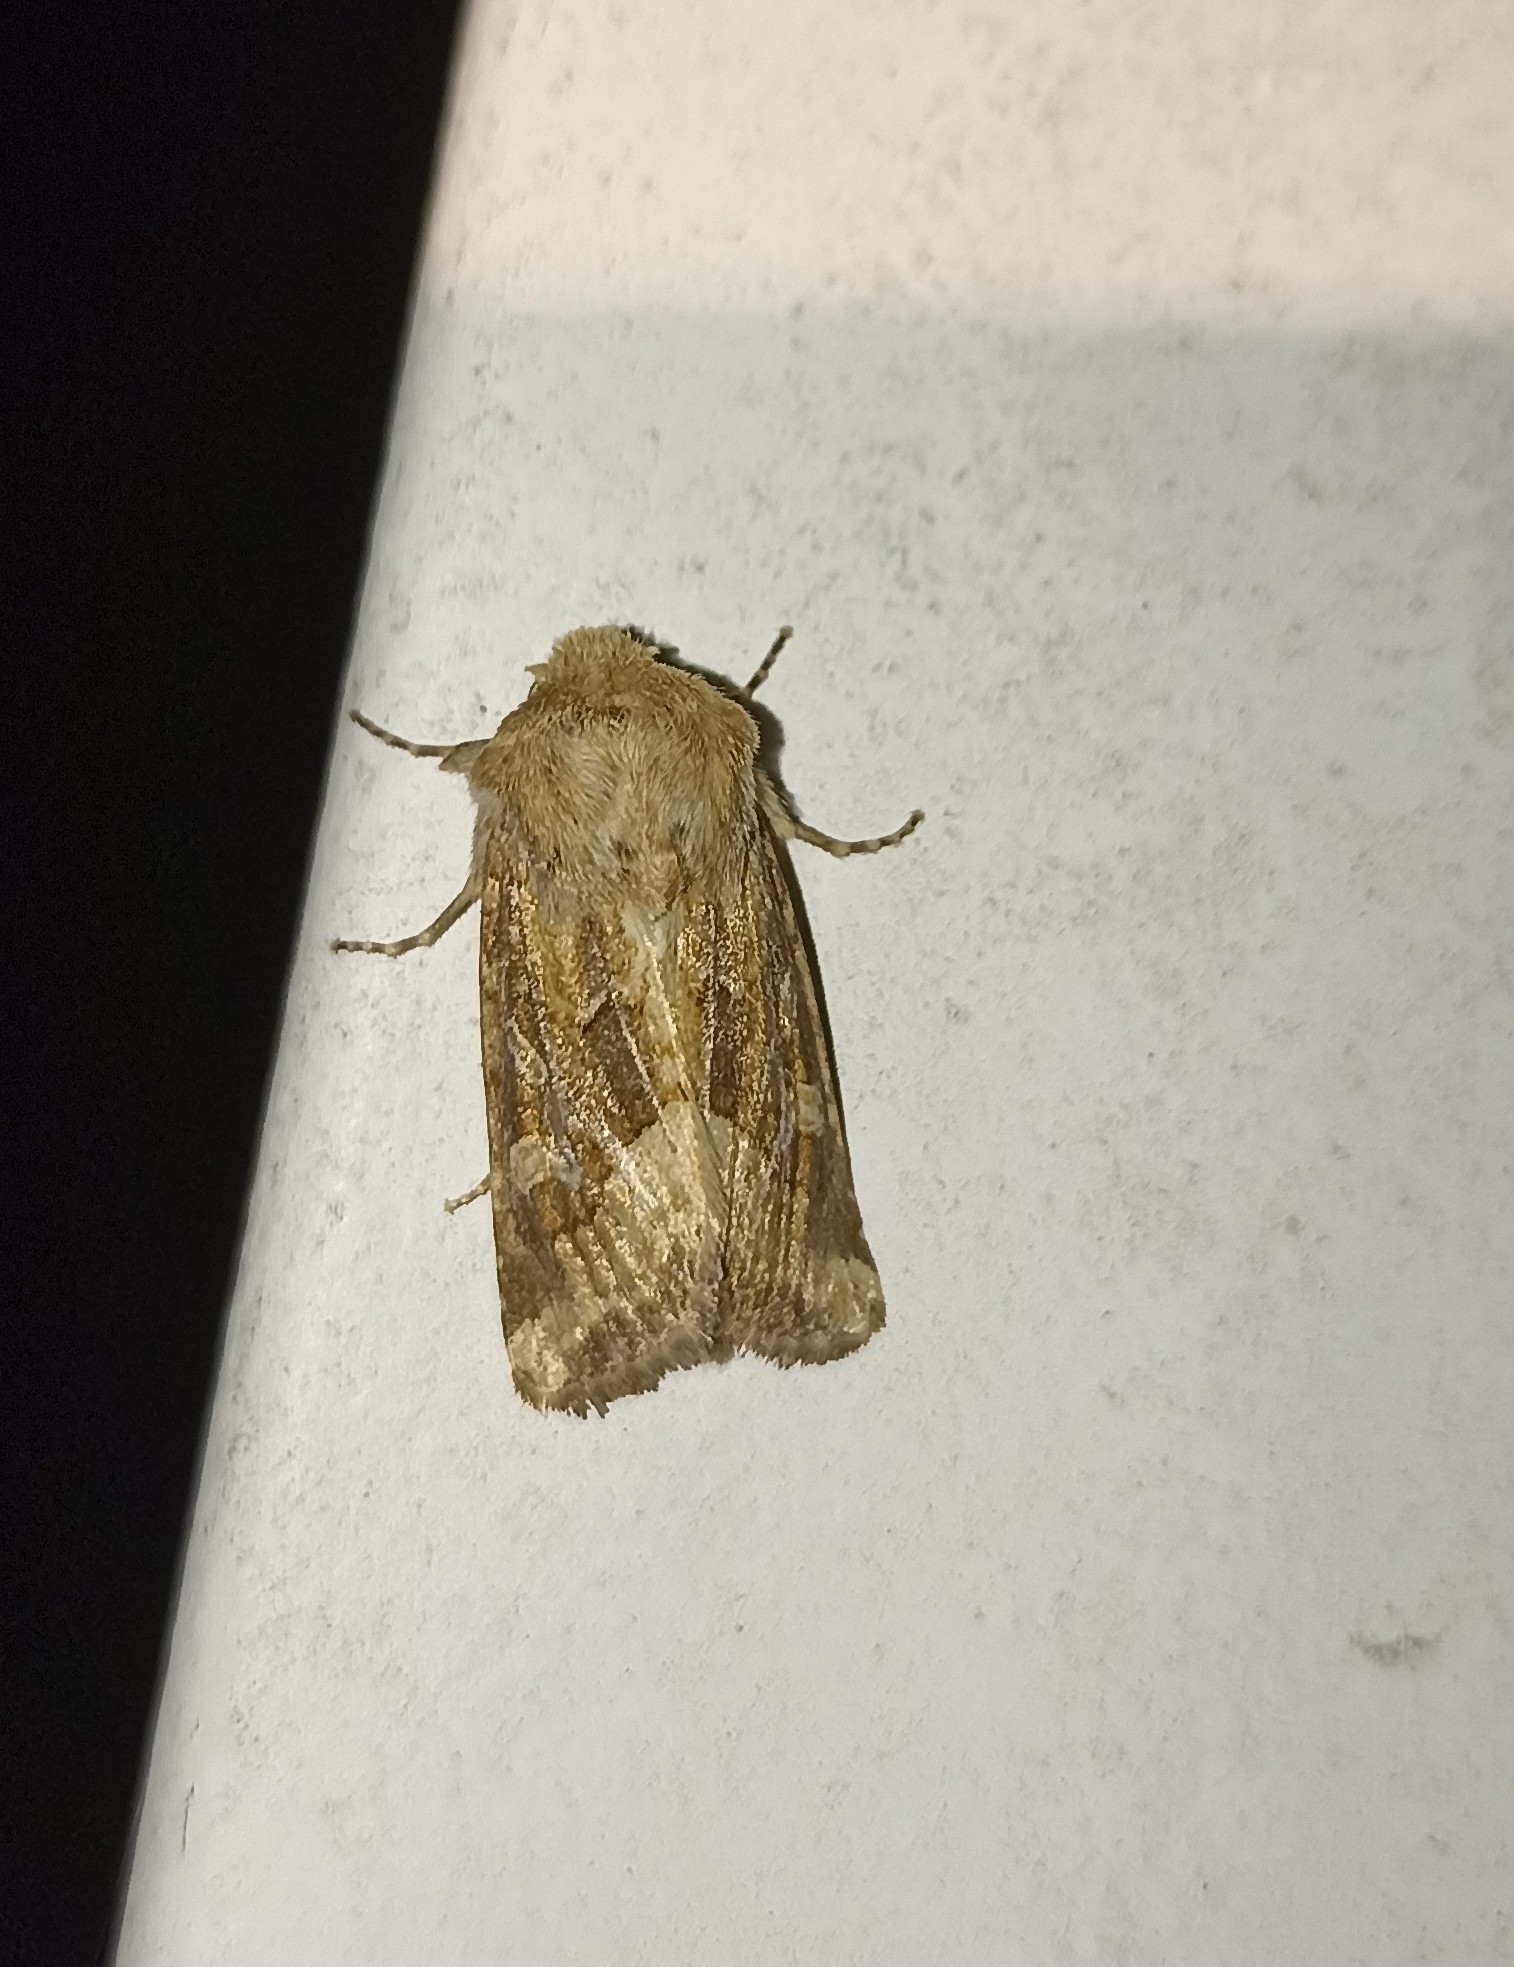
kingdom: Animalia
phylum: Arthropoda
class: Insecta
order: Lepidoptera
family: Noctuidae
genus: Luperina
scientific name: Luperina dumerilii
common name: Dumeril's rustic
